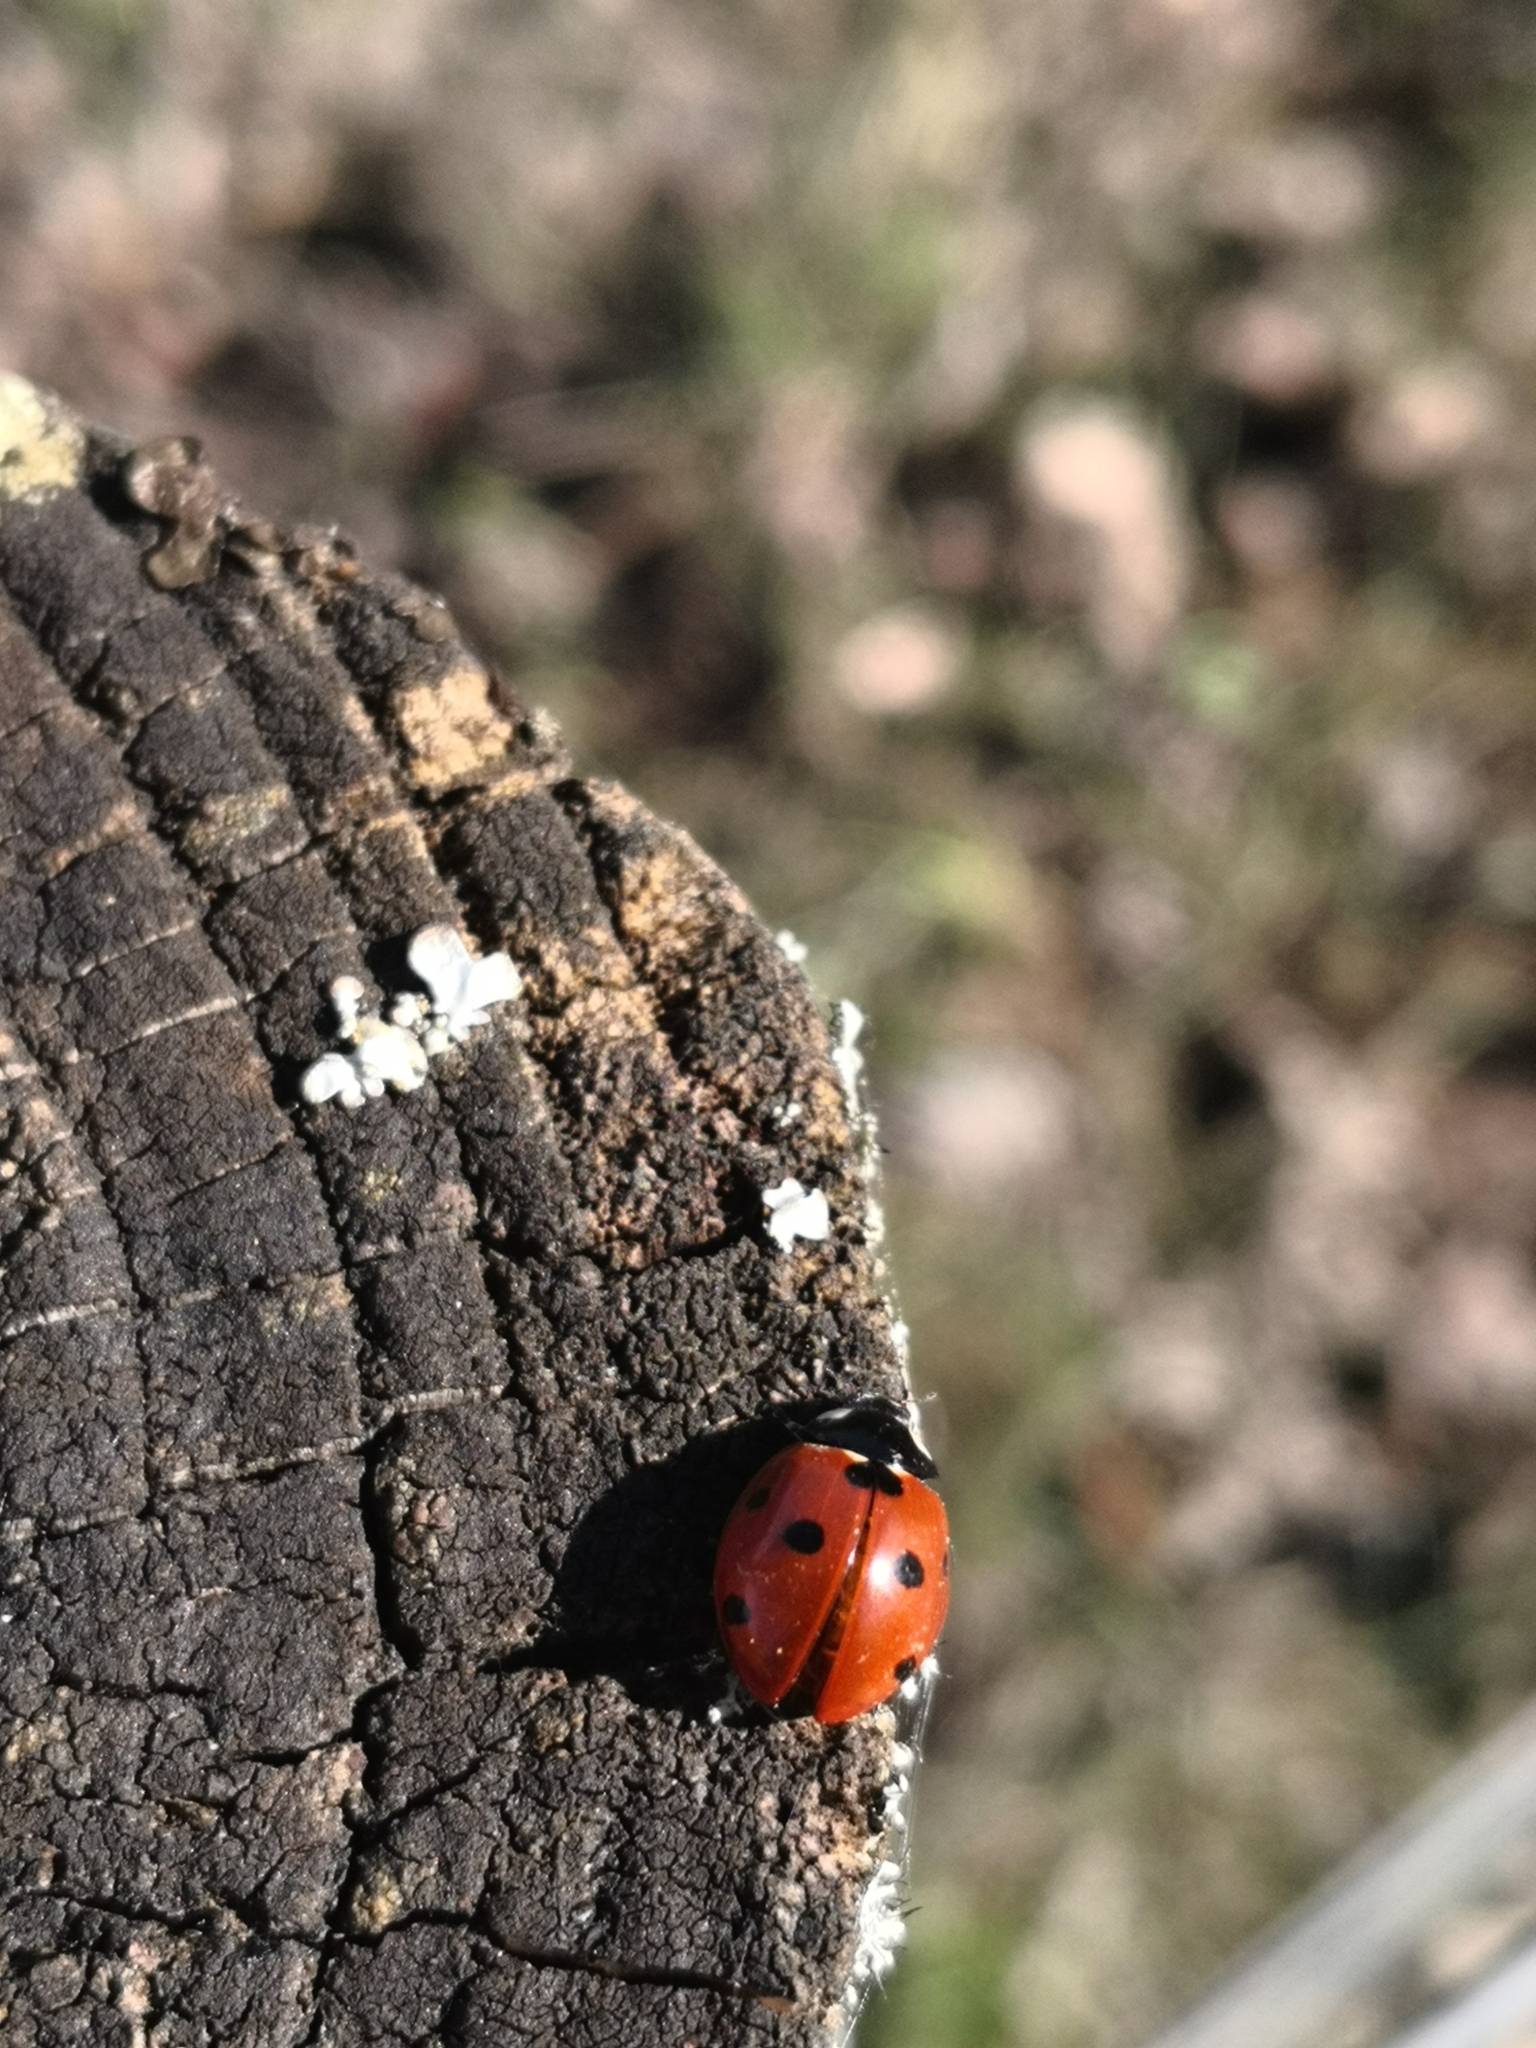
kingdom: Animalia
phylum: Arthropoda
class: Insecta
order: Coleoptera
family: Coccinellidae
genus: Coccinella
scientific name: Coccinella septempunctata
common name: Sevenspotted lady beetle
